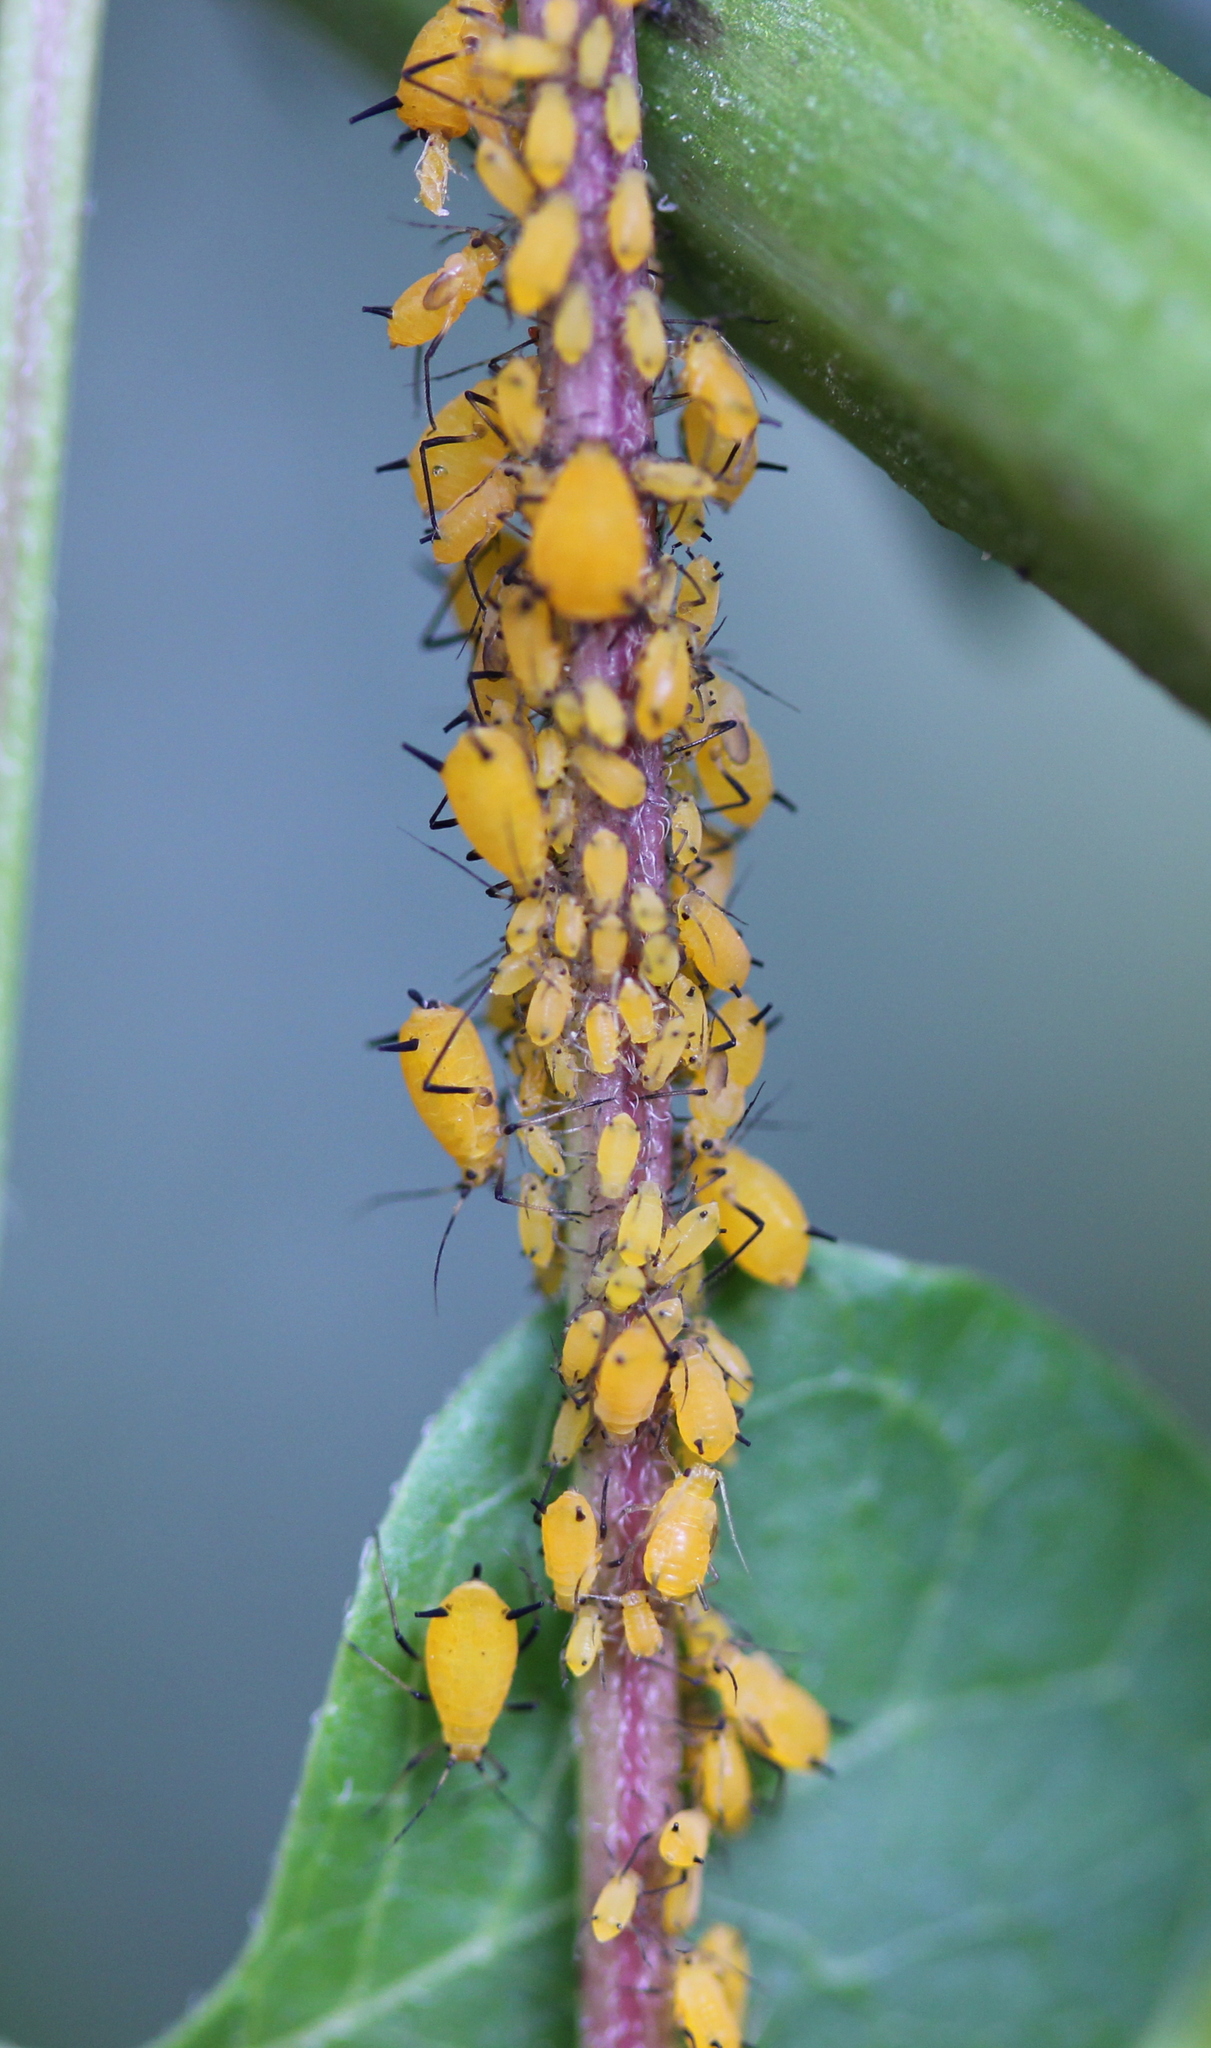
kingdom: Animalia
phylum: Arthropoda
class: Insecta
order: Hemiptera
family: Aphididae
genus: Aphis
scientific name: Aphis nerii
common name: Oleander aphid
